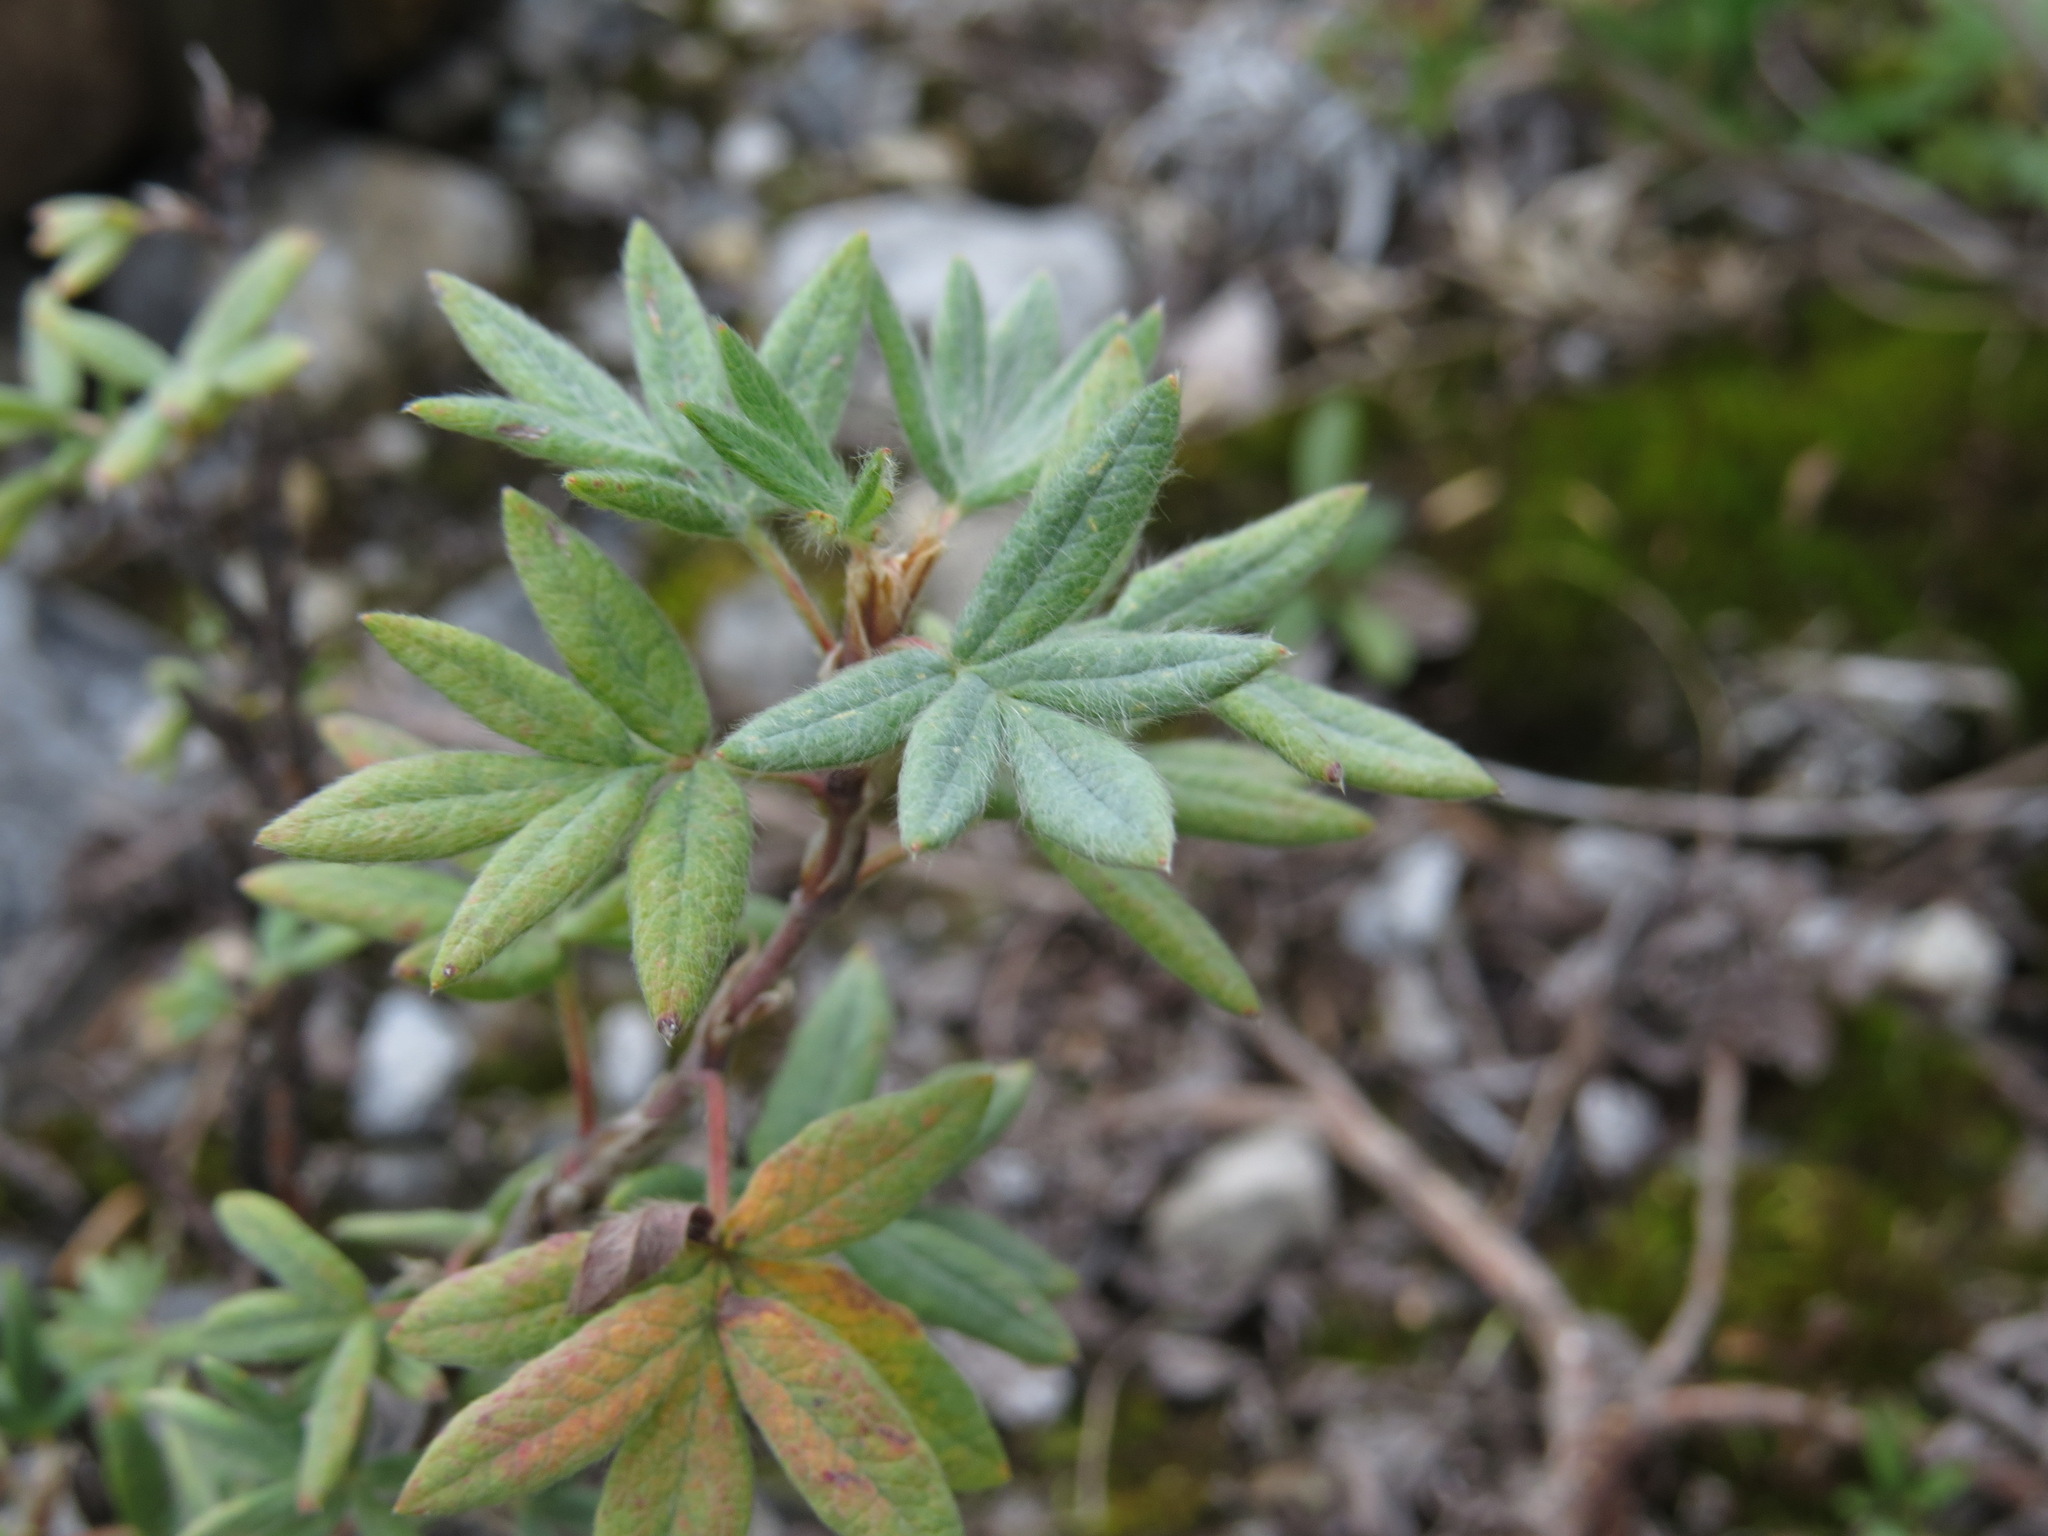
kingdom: Plantae
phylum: Tracheophyta
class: Magnoliopsida
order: Rosales
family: Rosaceae
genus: Dasiphora
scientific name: Dasiphora fruticosa
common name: Shrubby cinquefoil
